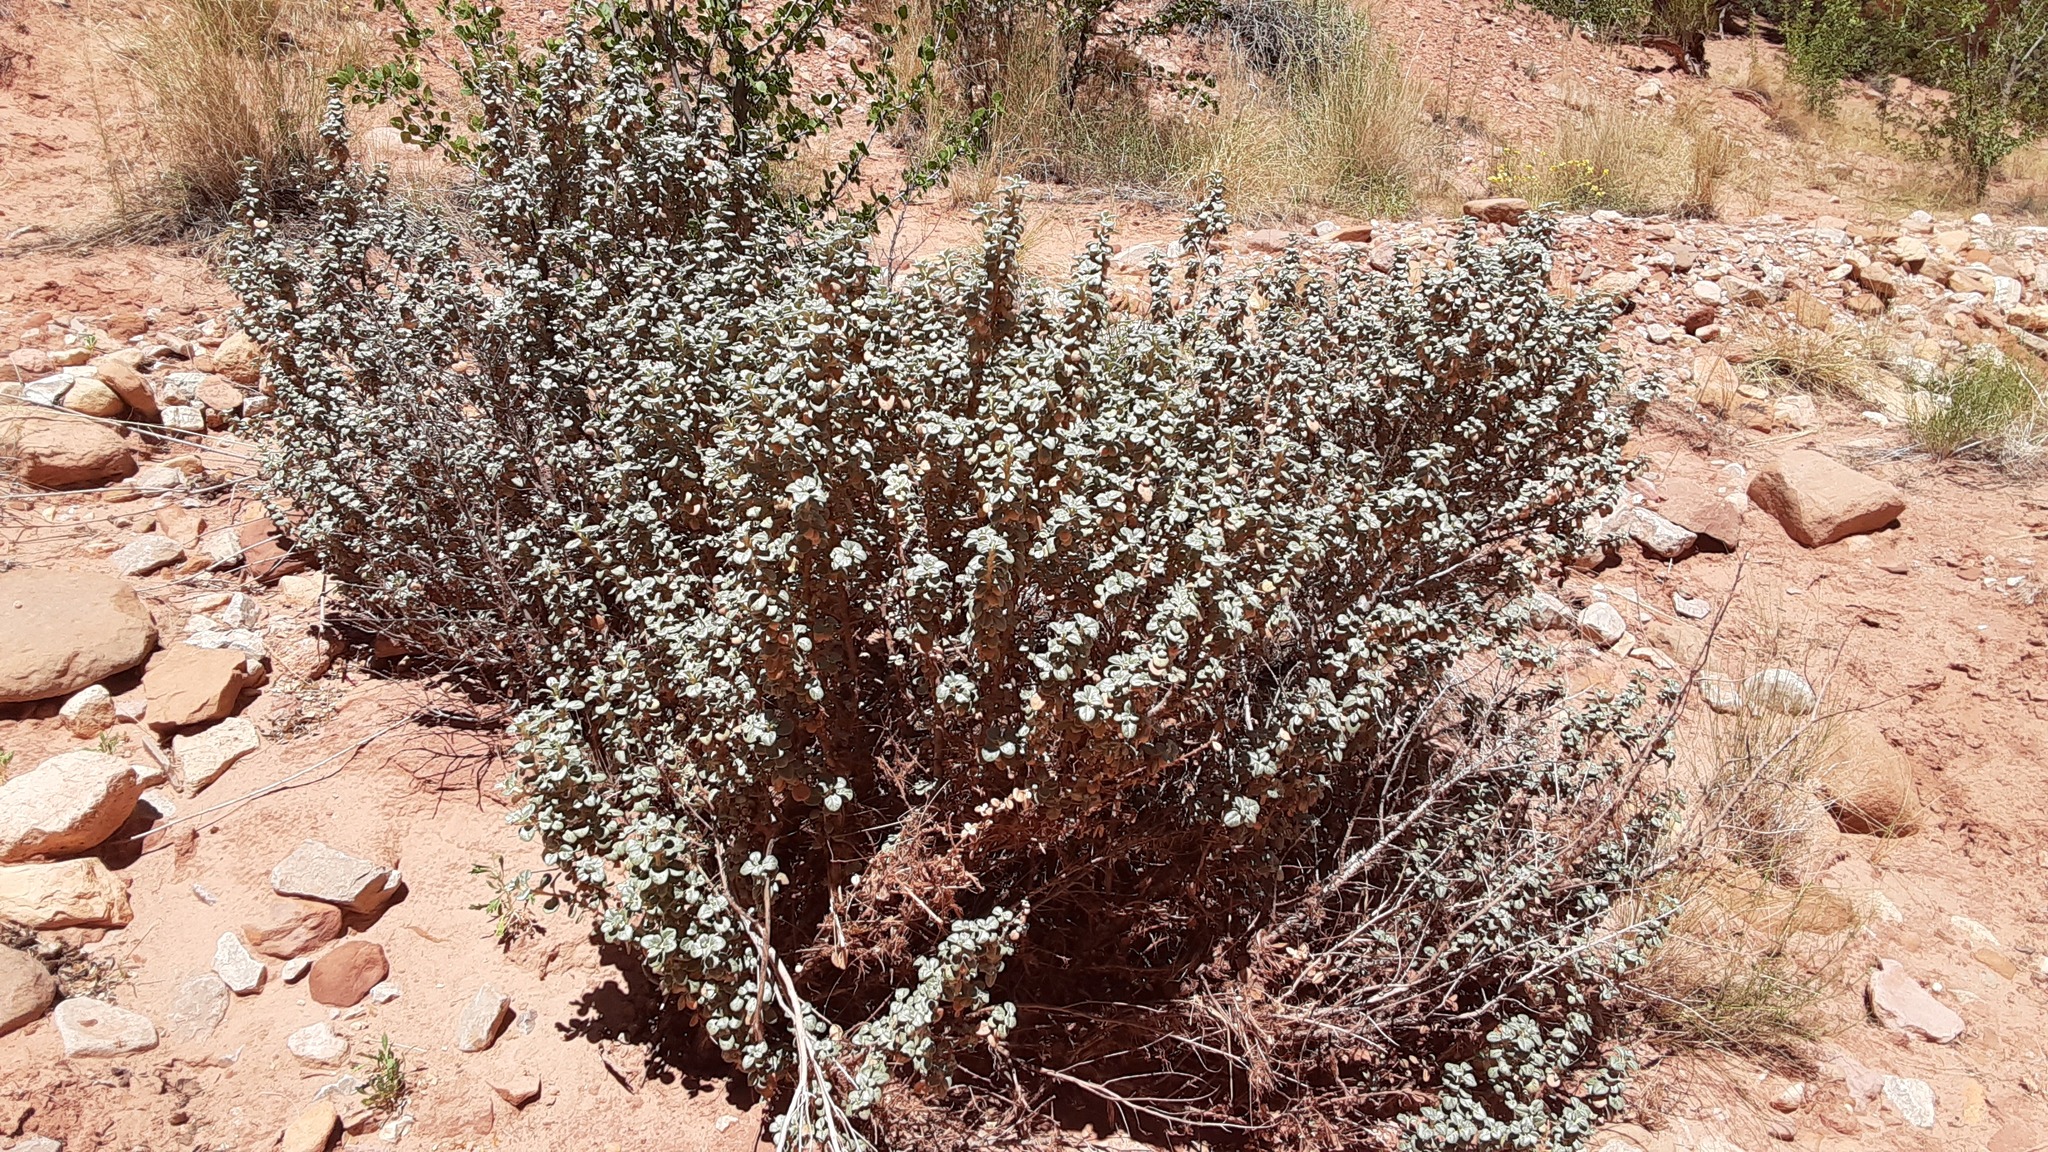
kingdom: Plantae
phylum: Tracheophyta
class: Magnoliopsida
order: Rosales
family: Elaeagnaceae
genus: Shepherdia
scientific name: Shepherdia rotundifolia
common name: Silverscale
